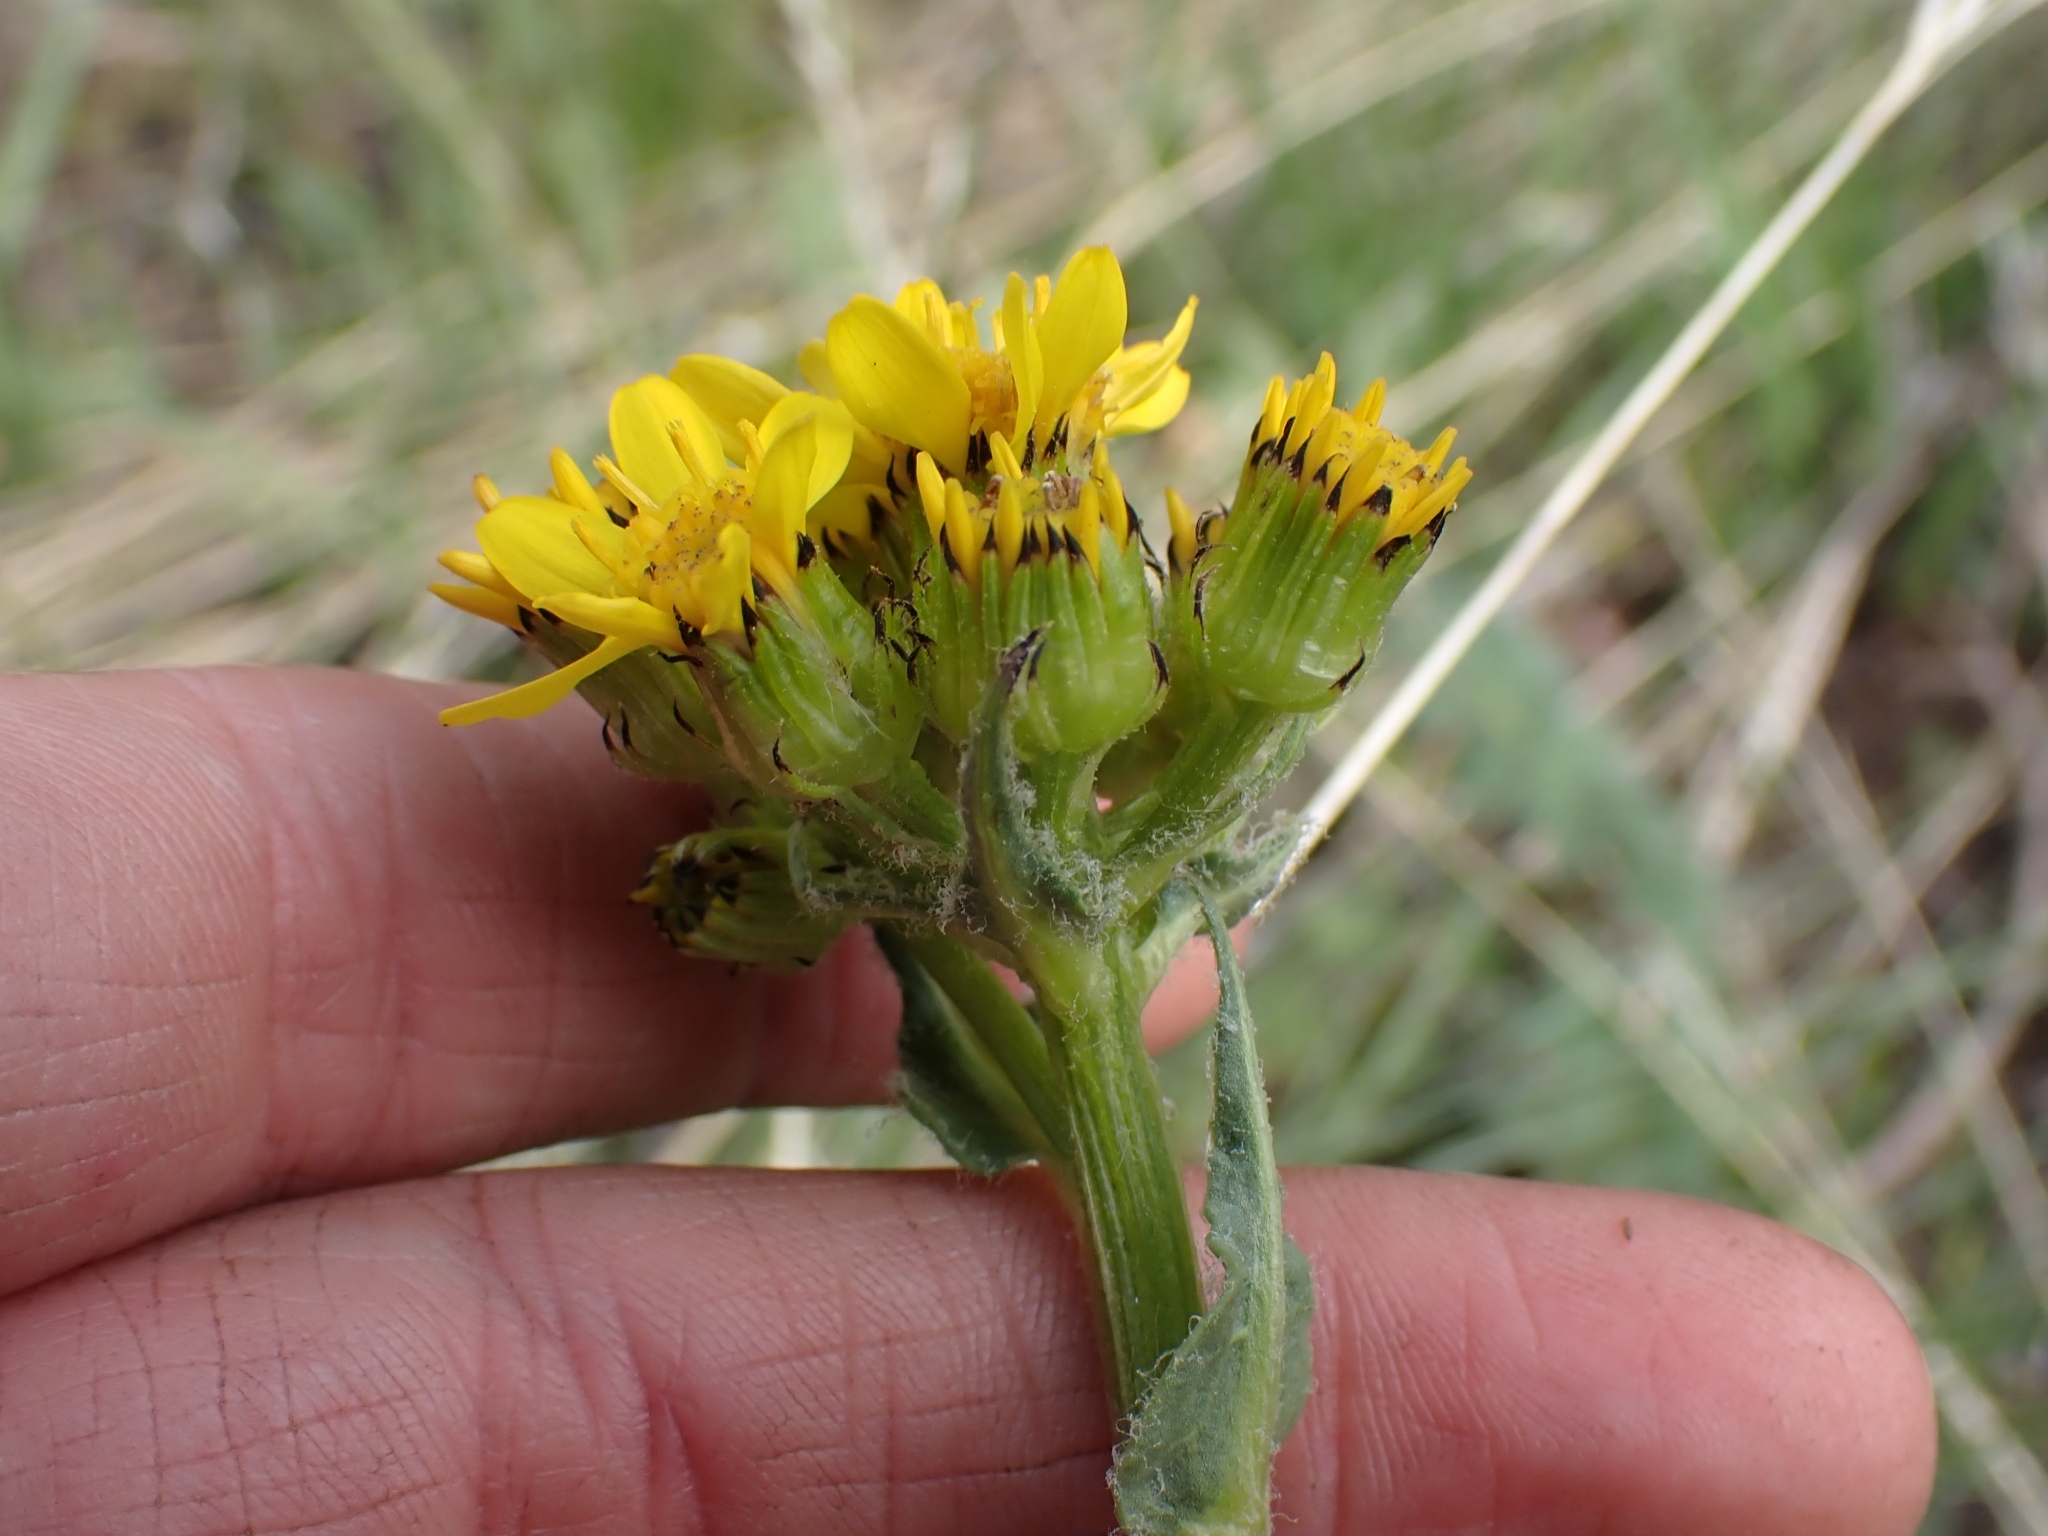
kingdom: Plantae
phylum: Tracheophyta
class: Magnoliopsida
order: Asterales
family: Asteraceae
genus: Senecio
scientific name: Senecio integerrimus
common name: Gaugeplant
